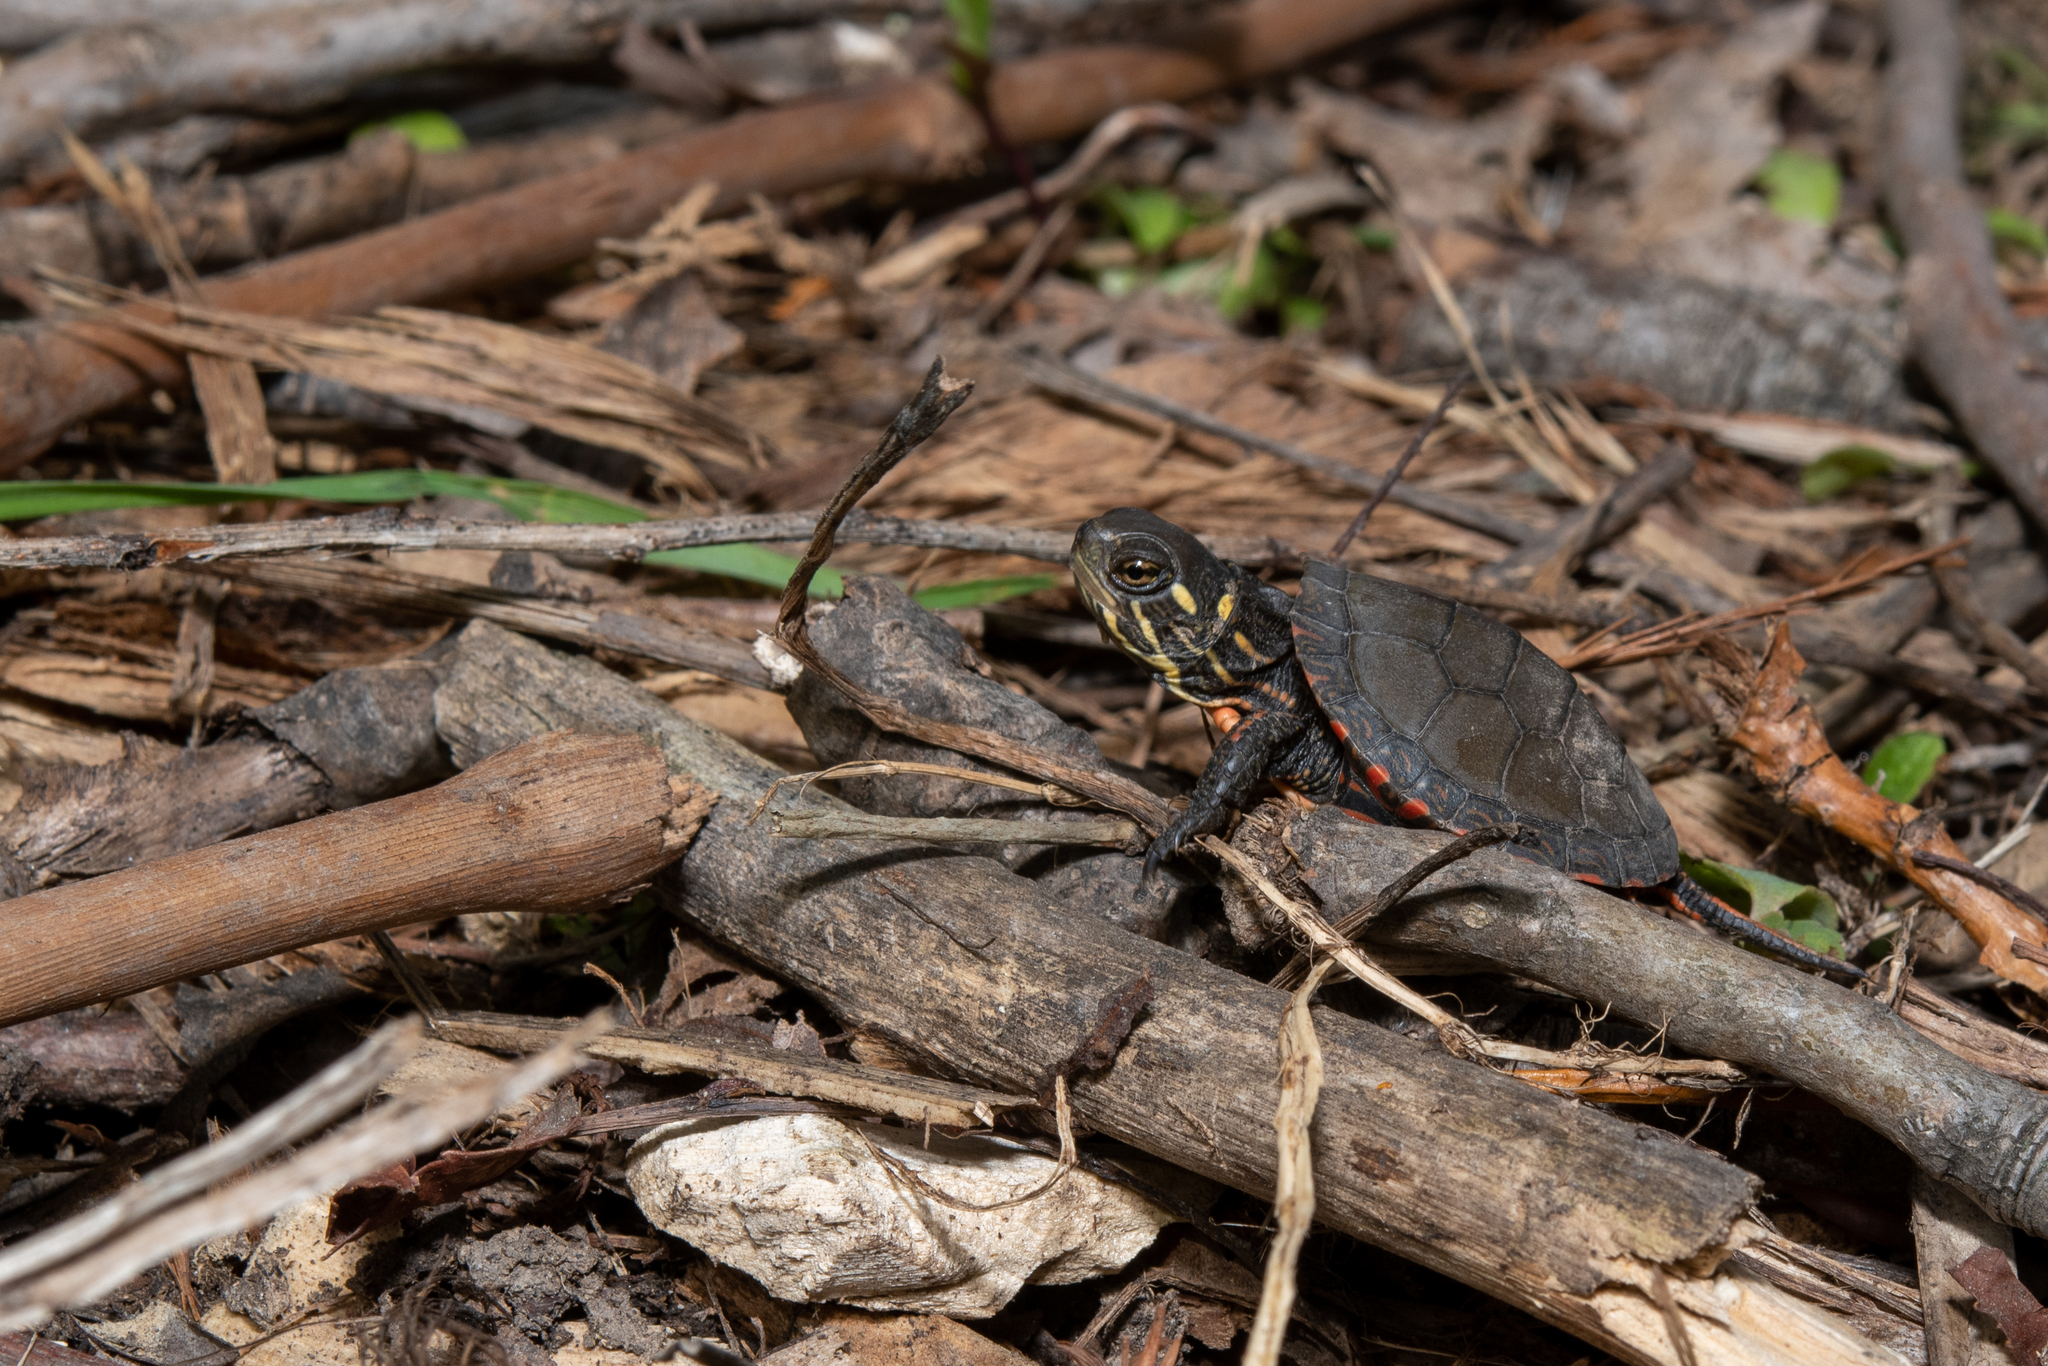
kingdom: Animalia
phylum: Chordata
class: Testudines
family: Emydidae
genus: Chrysemys
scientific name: Chrysemys picta
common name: Painted turtle
